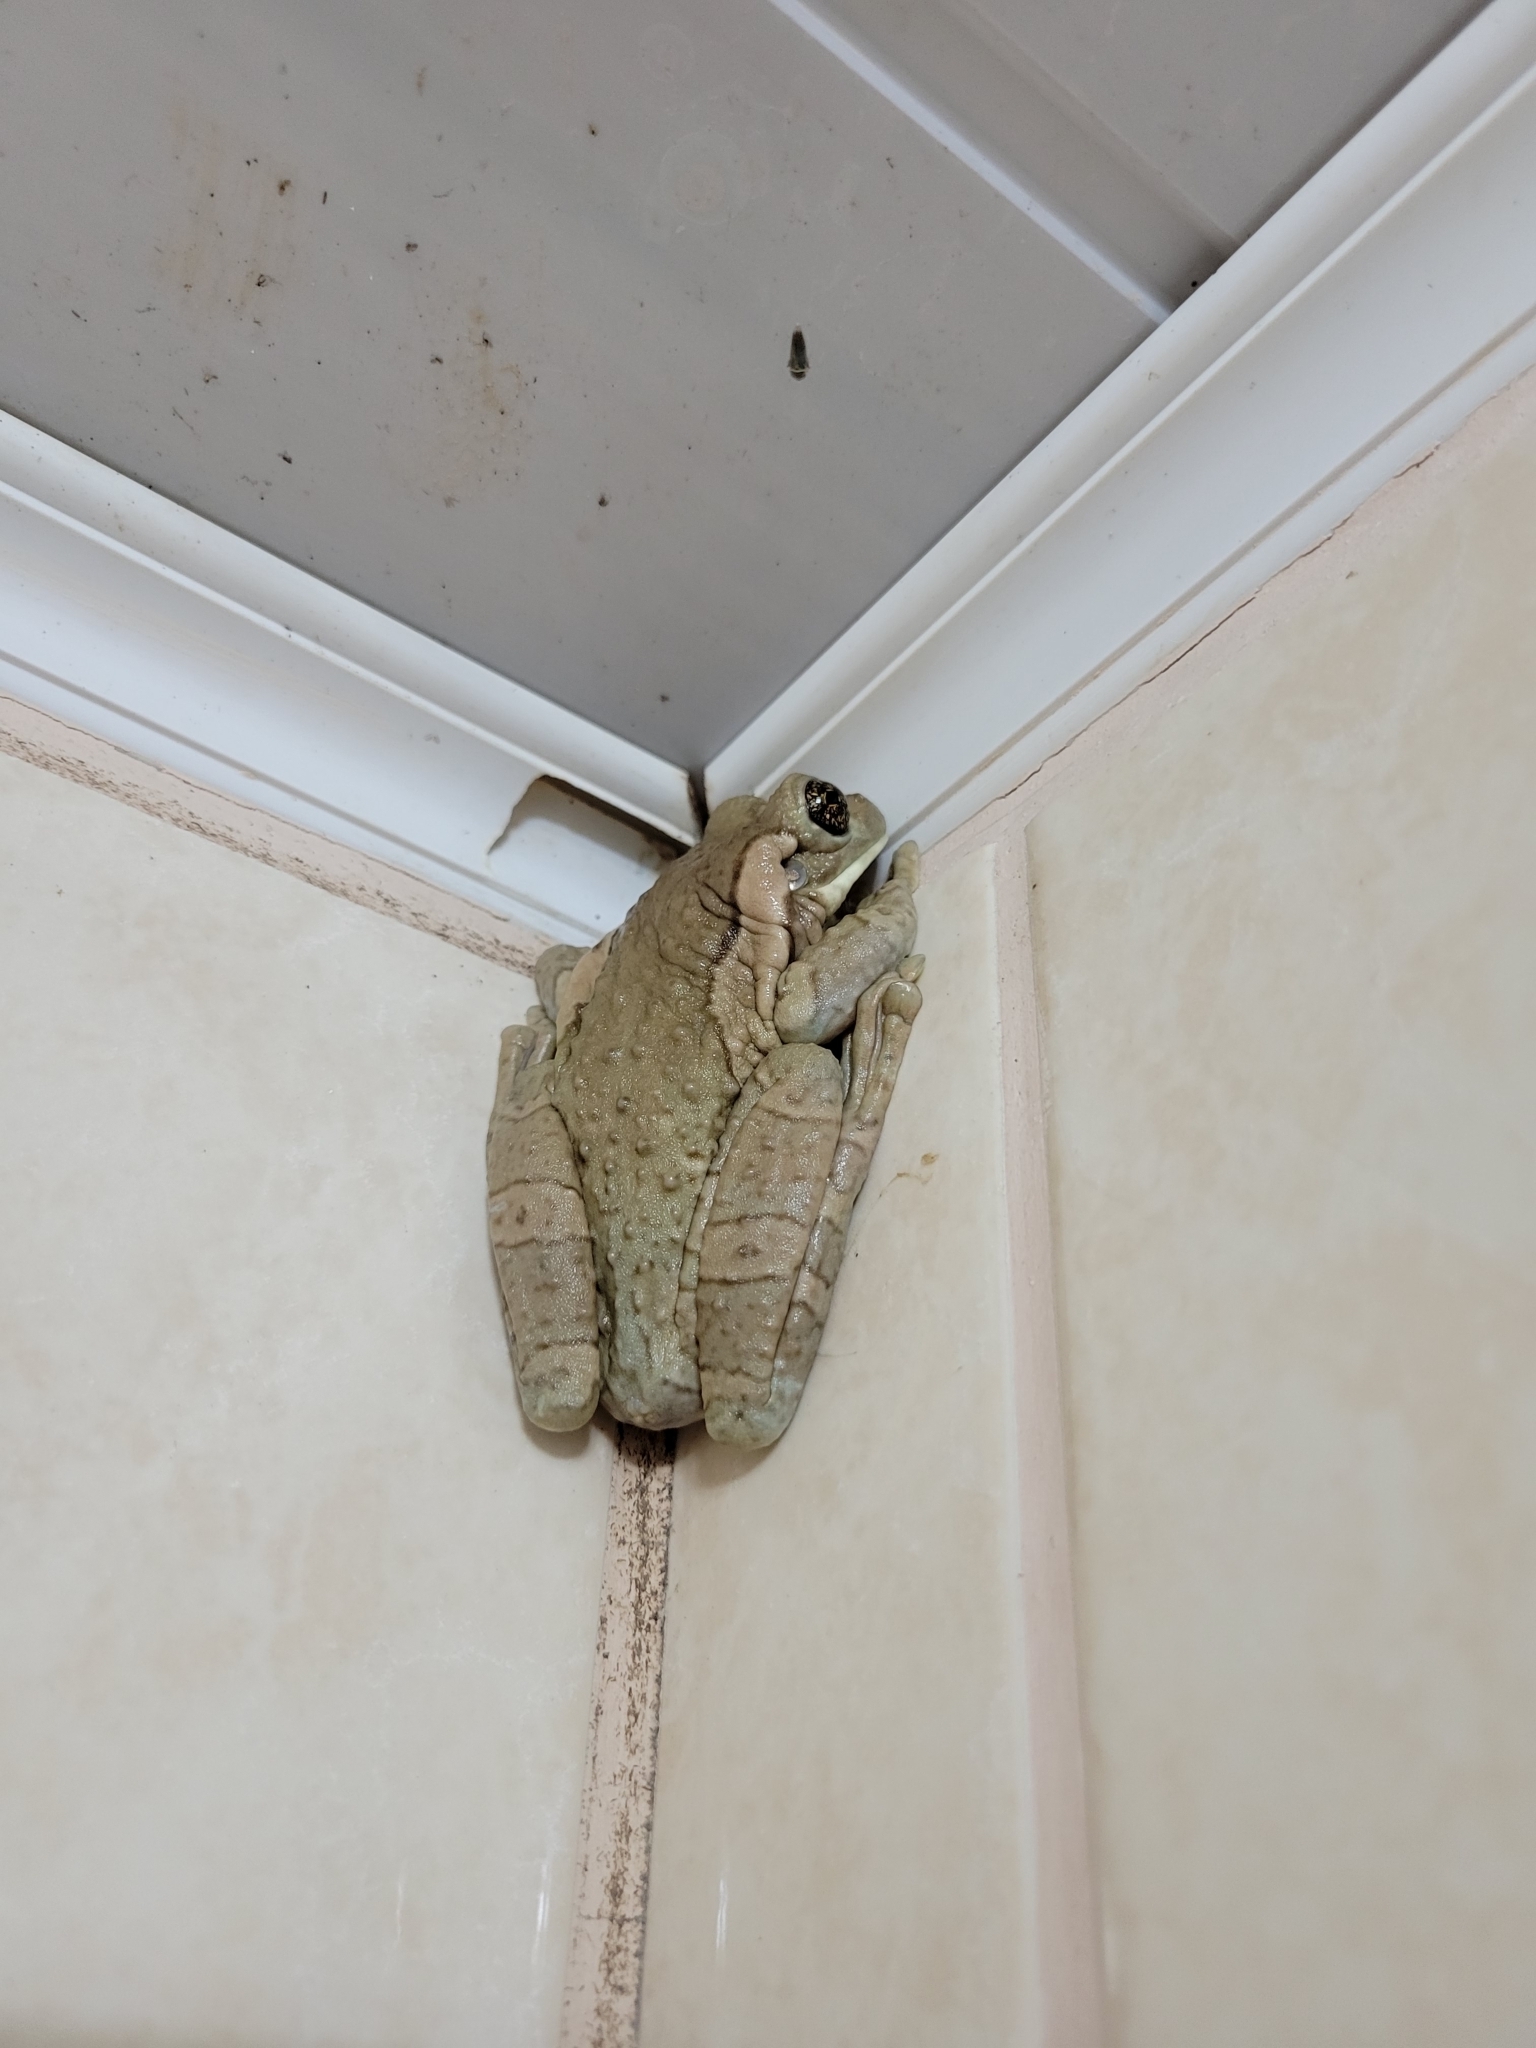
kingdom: Animalia
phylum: Chordata
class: Amphibia
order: Anura
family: Hylidae
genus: Trachycephalus
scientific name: Trachycephalus vermiculatus
